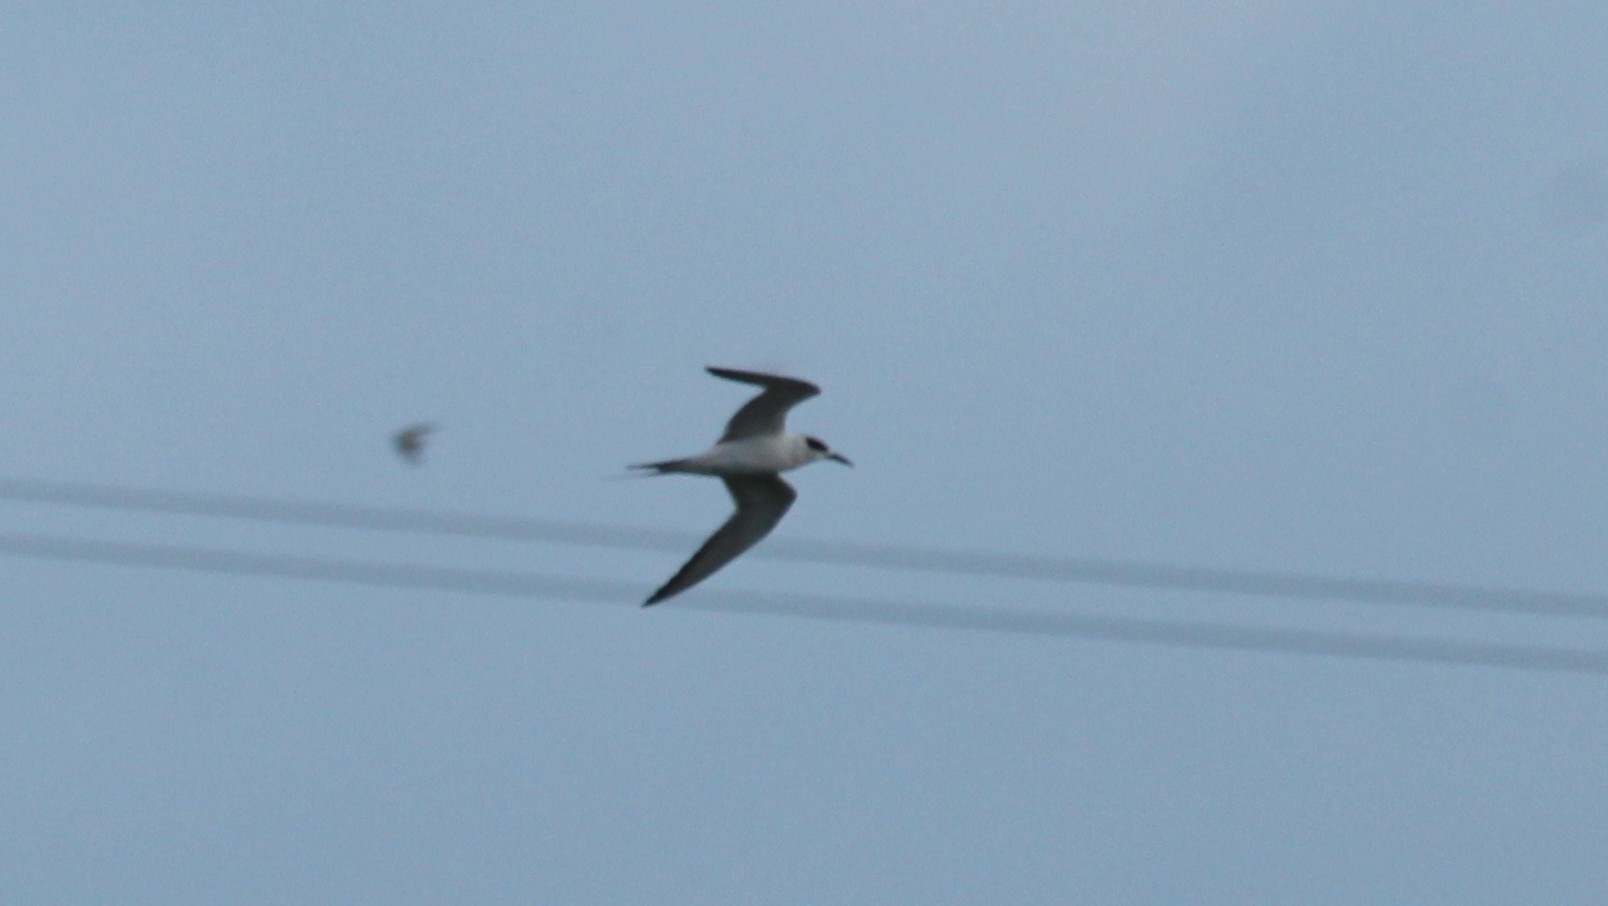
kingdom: Animalia
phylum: Chordata
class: Aves
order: Charadriiformes
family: Laridae
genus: Sterna
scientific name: Sterna forsteri
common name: Forster's tern
